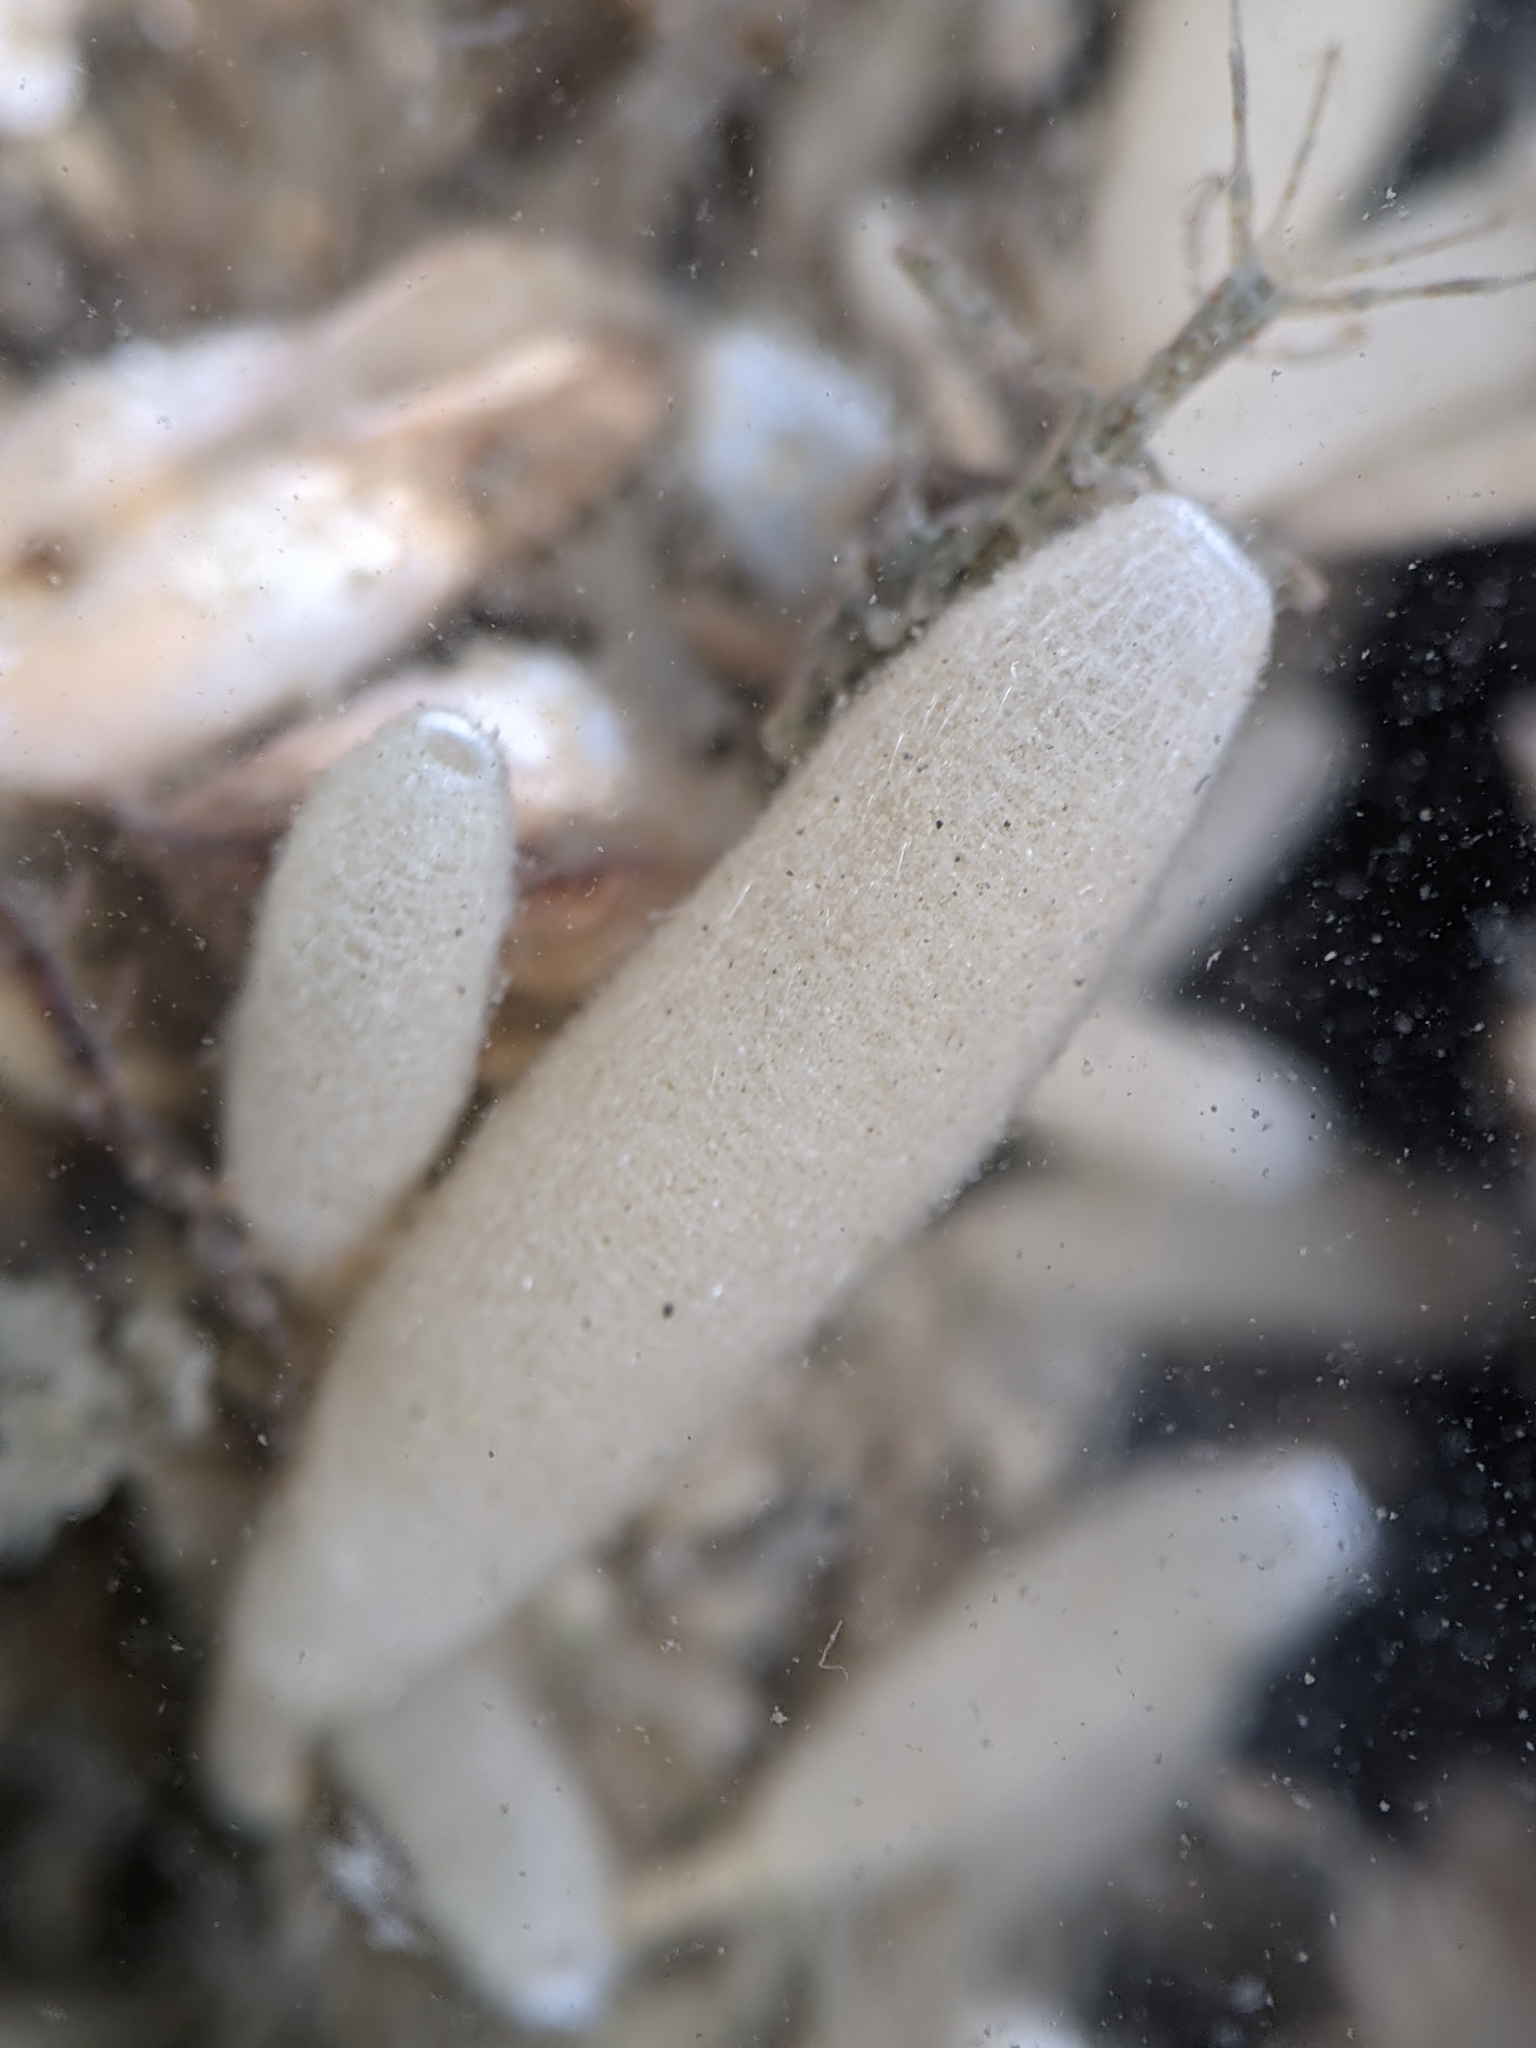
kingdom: Animalia
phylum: Porifera
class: Calcarea
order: Leucosolenida
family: Amphoriscidae
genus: Leucilla
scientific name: Leucilla nuttingi
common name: Nutting's sponge
